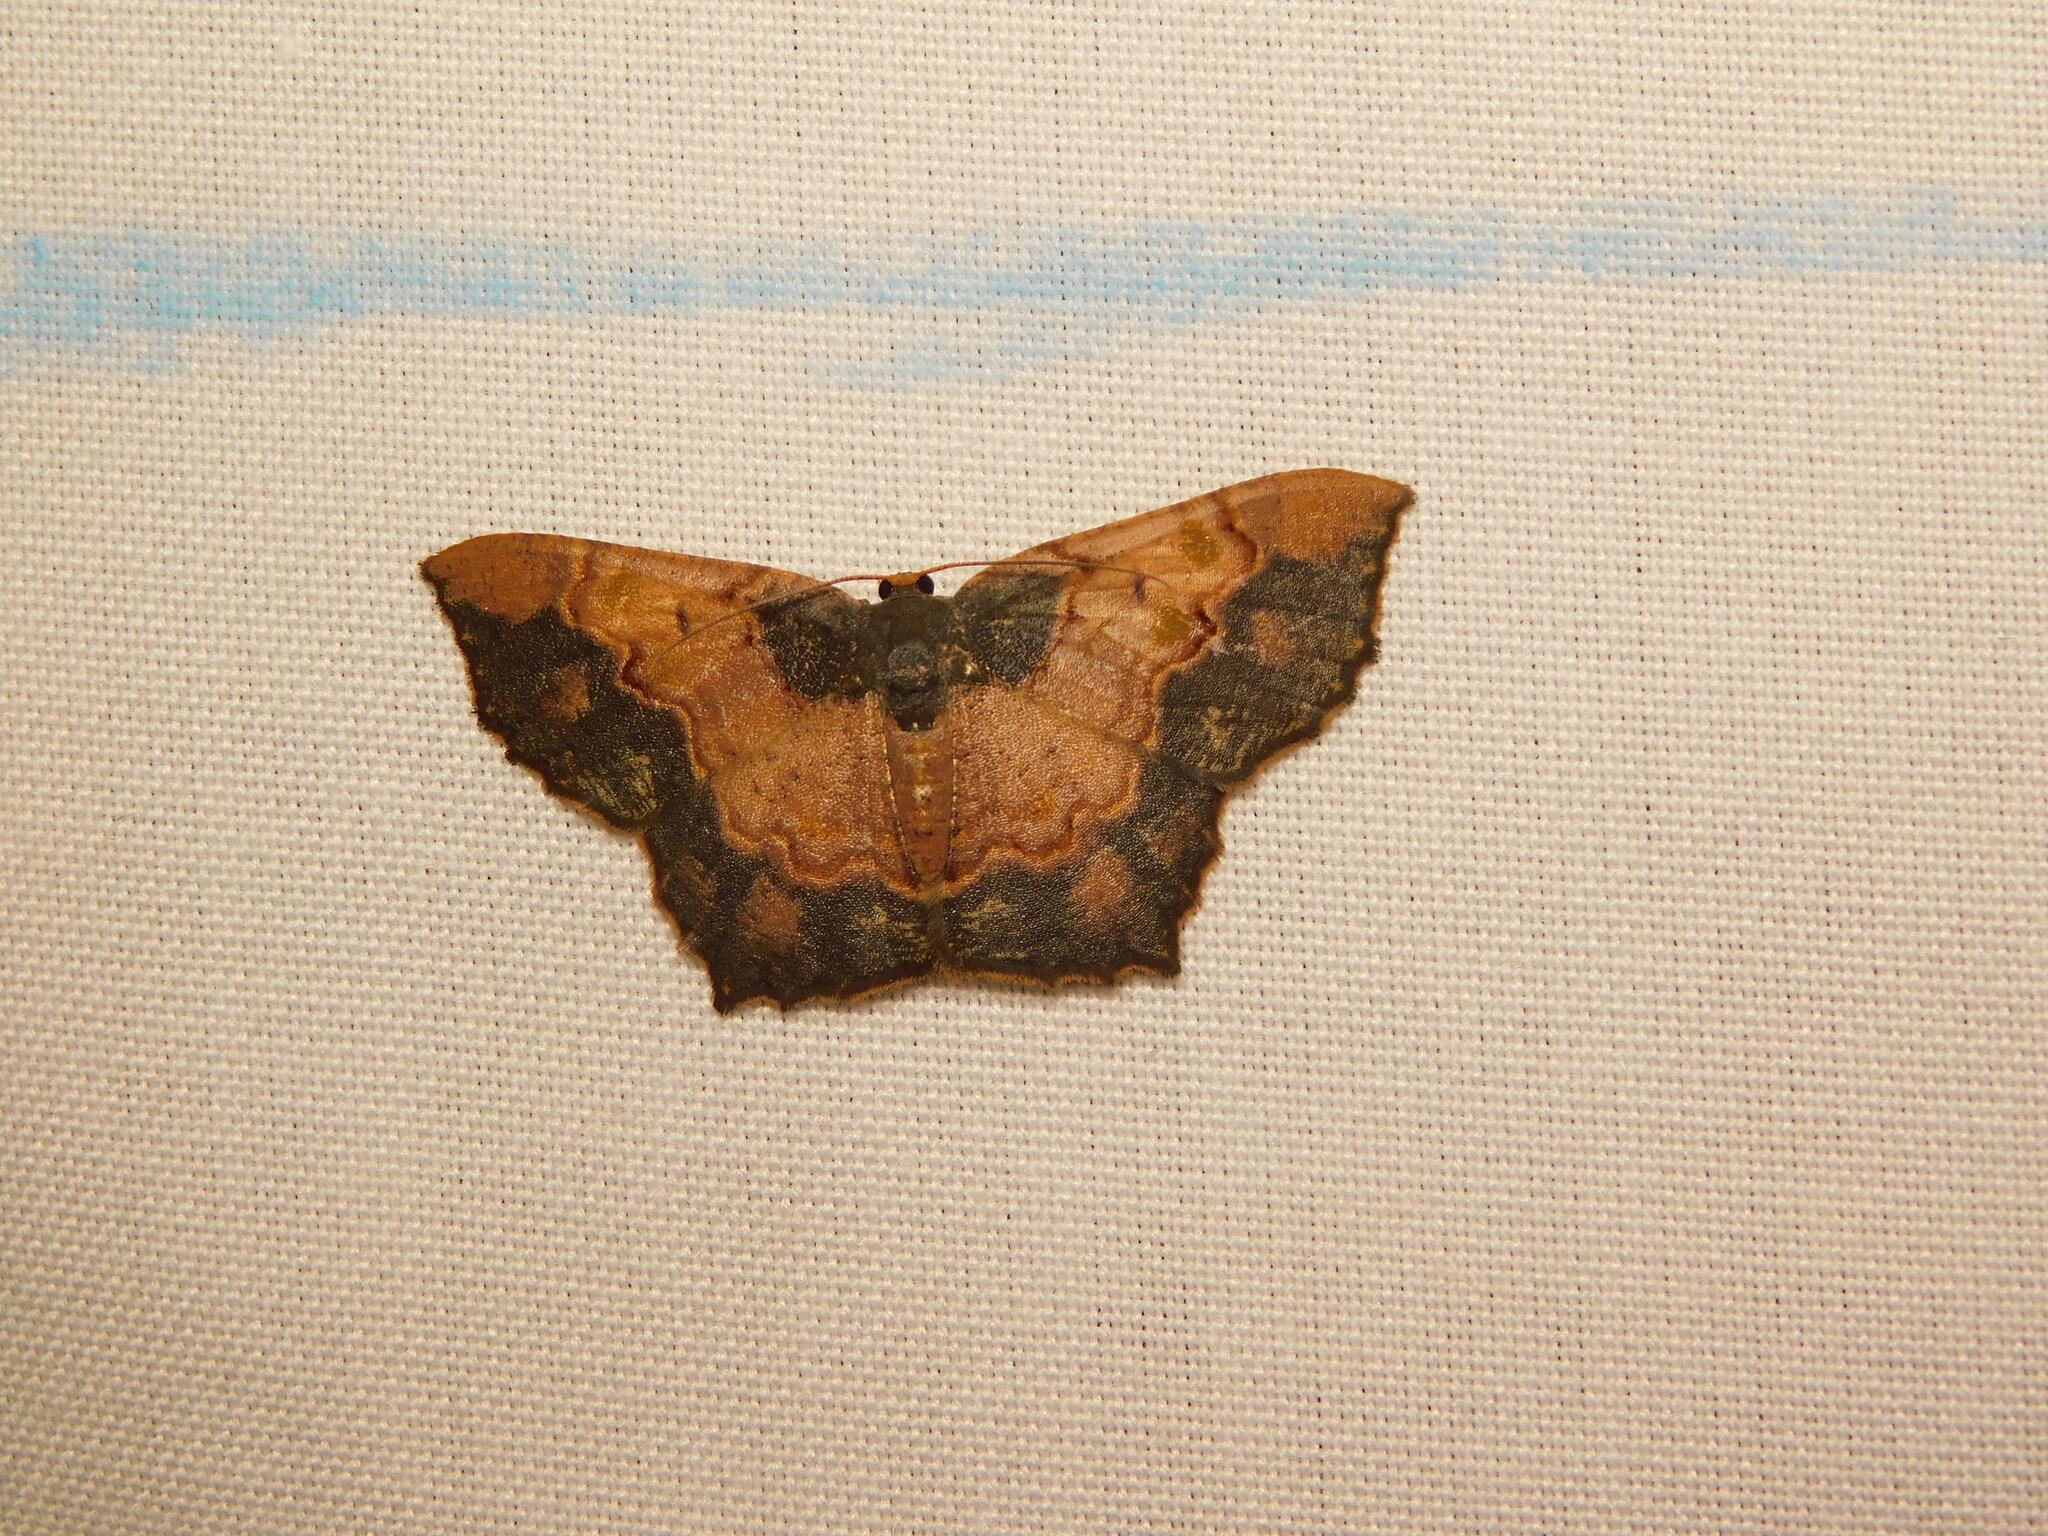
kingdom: Animalia
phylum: Arthropoda
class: Insecta
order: Lepidoptera
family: Geometridae
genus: Serratophyga
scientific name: Serratophyga subangulata
